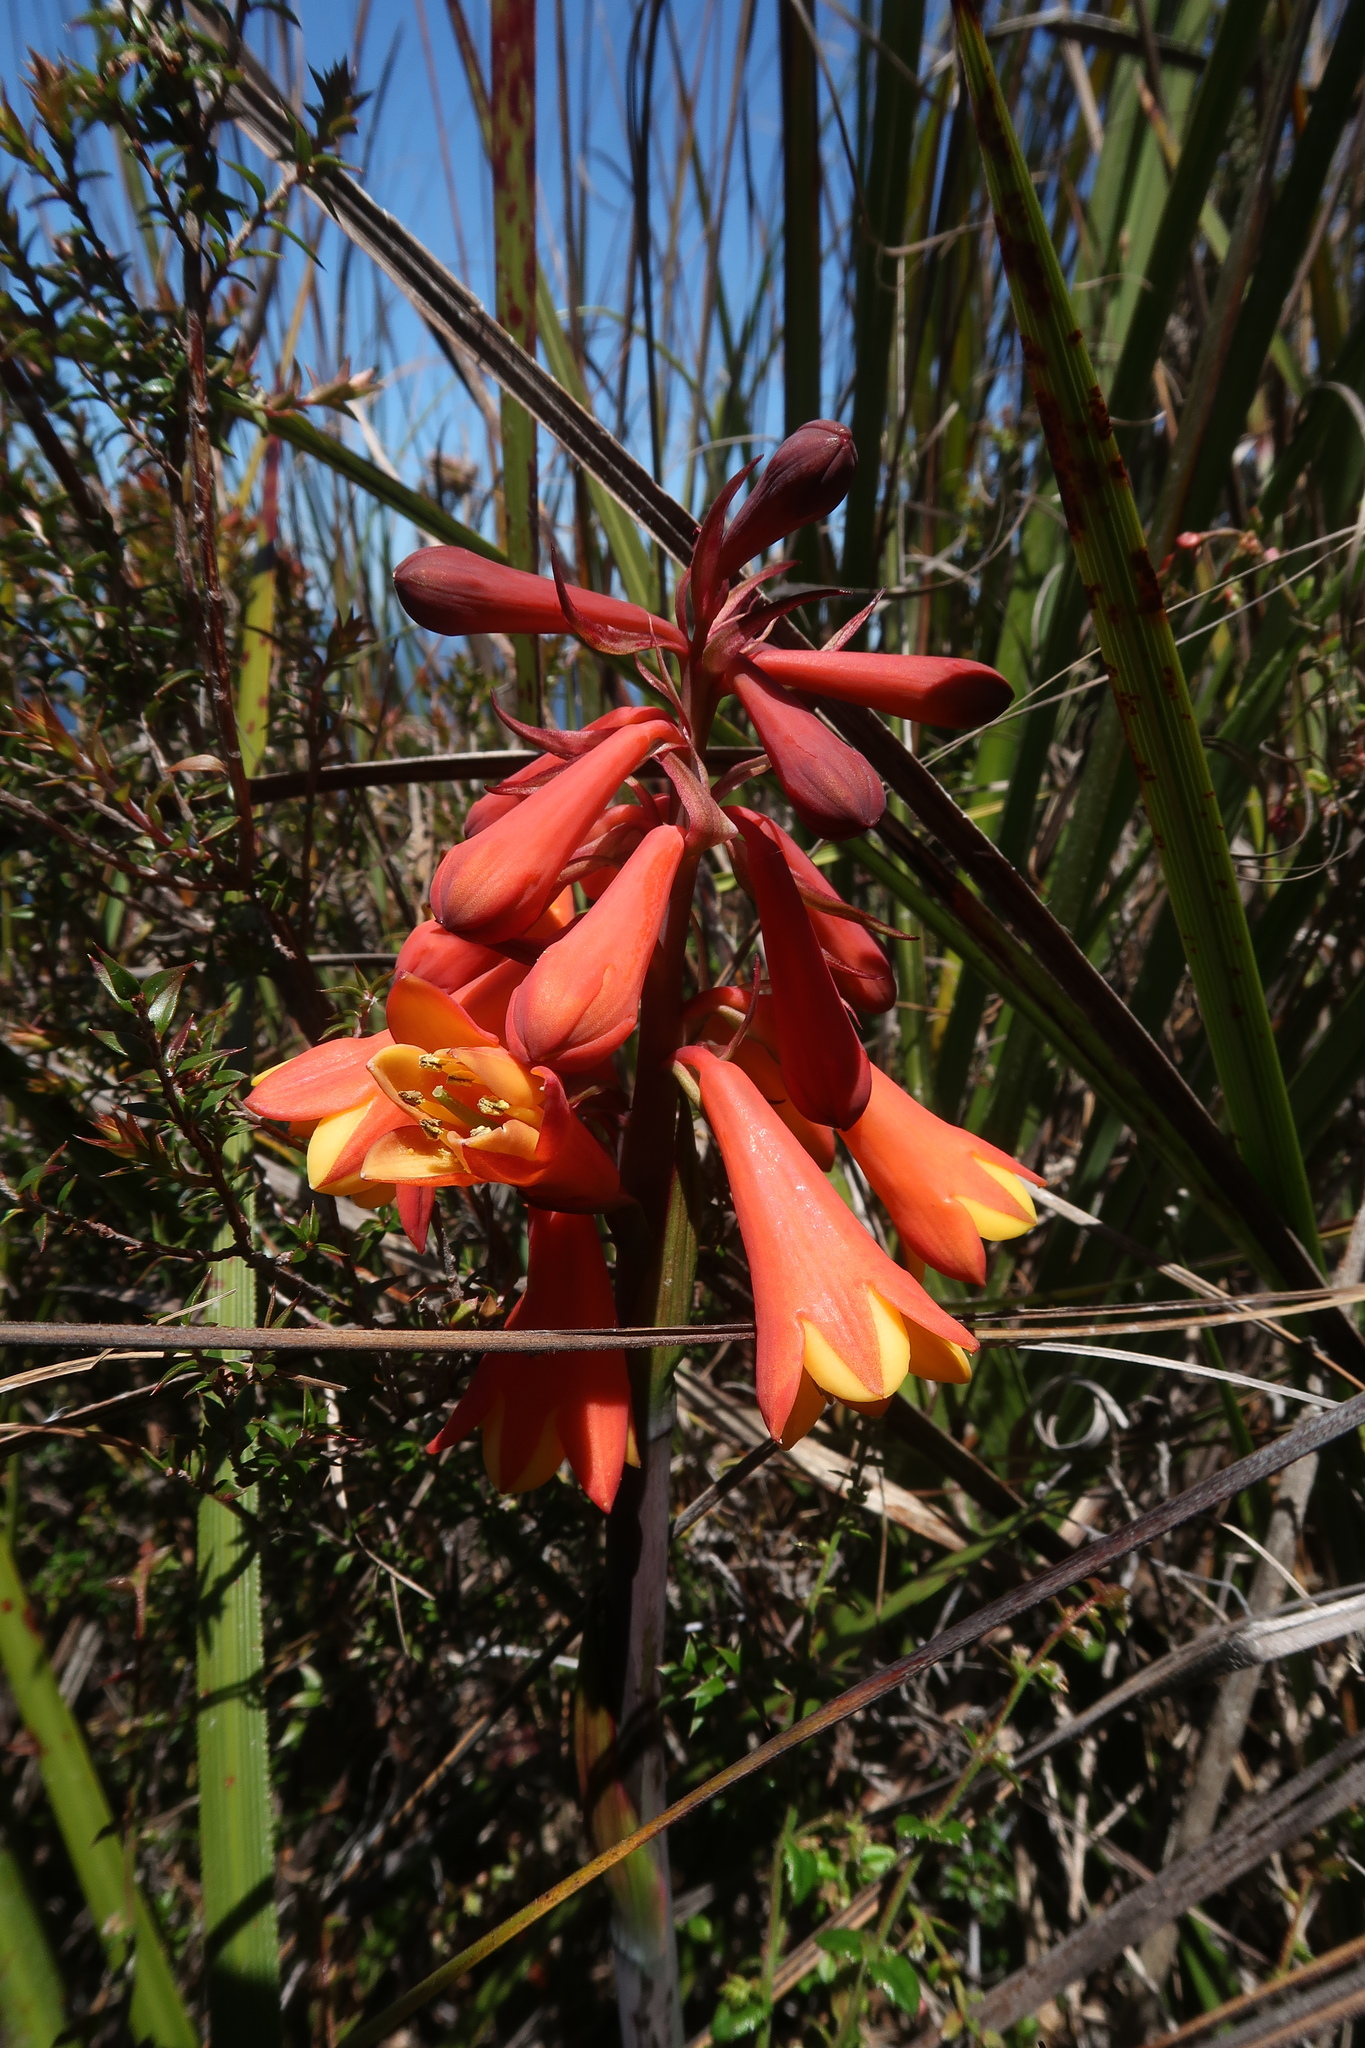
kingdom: Plantae
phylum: Tracheophyta
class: Liliopsida
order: Asparagales
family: Blandfordiaceae
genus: Blandfordia
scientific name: Blandfordia punicea
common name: Tasmanian christmas-bell
